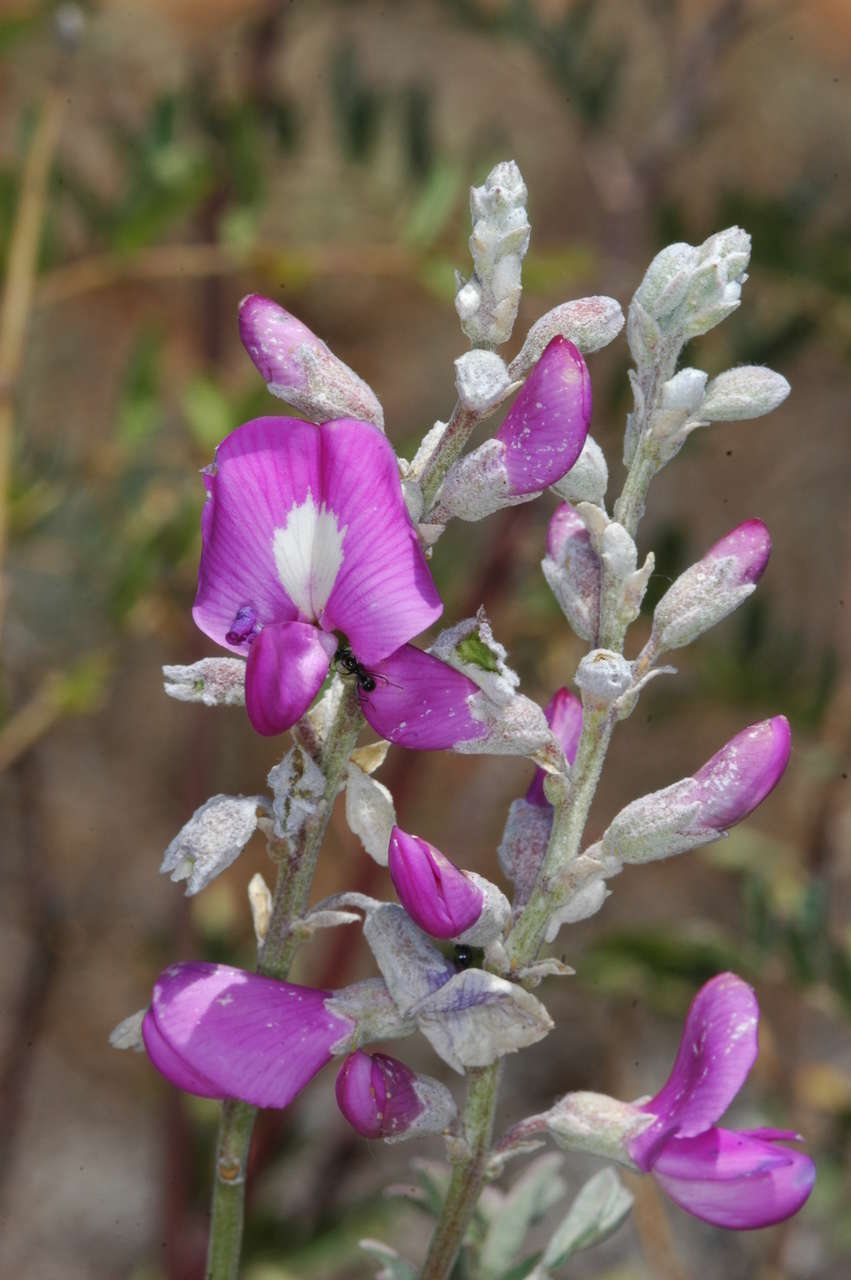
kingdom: Plantae
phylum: Tracheophyta
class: Magnoliopsida
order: Fabales
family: Fabaceae
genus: Swainsona
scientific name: Swainsona greyana
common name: Darling-pea
